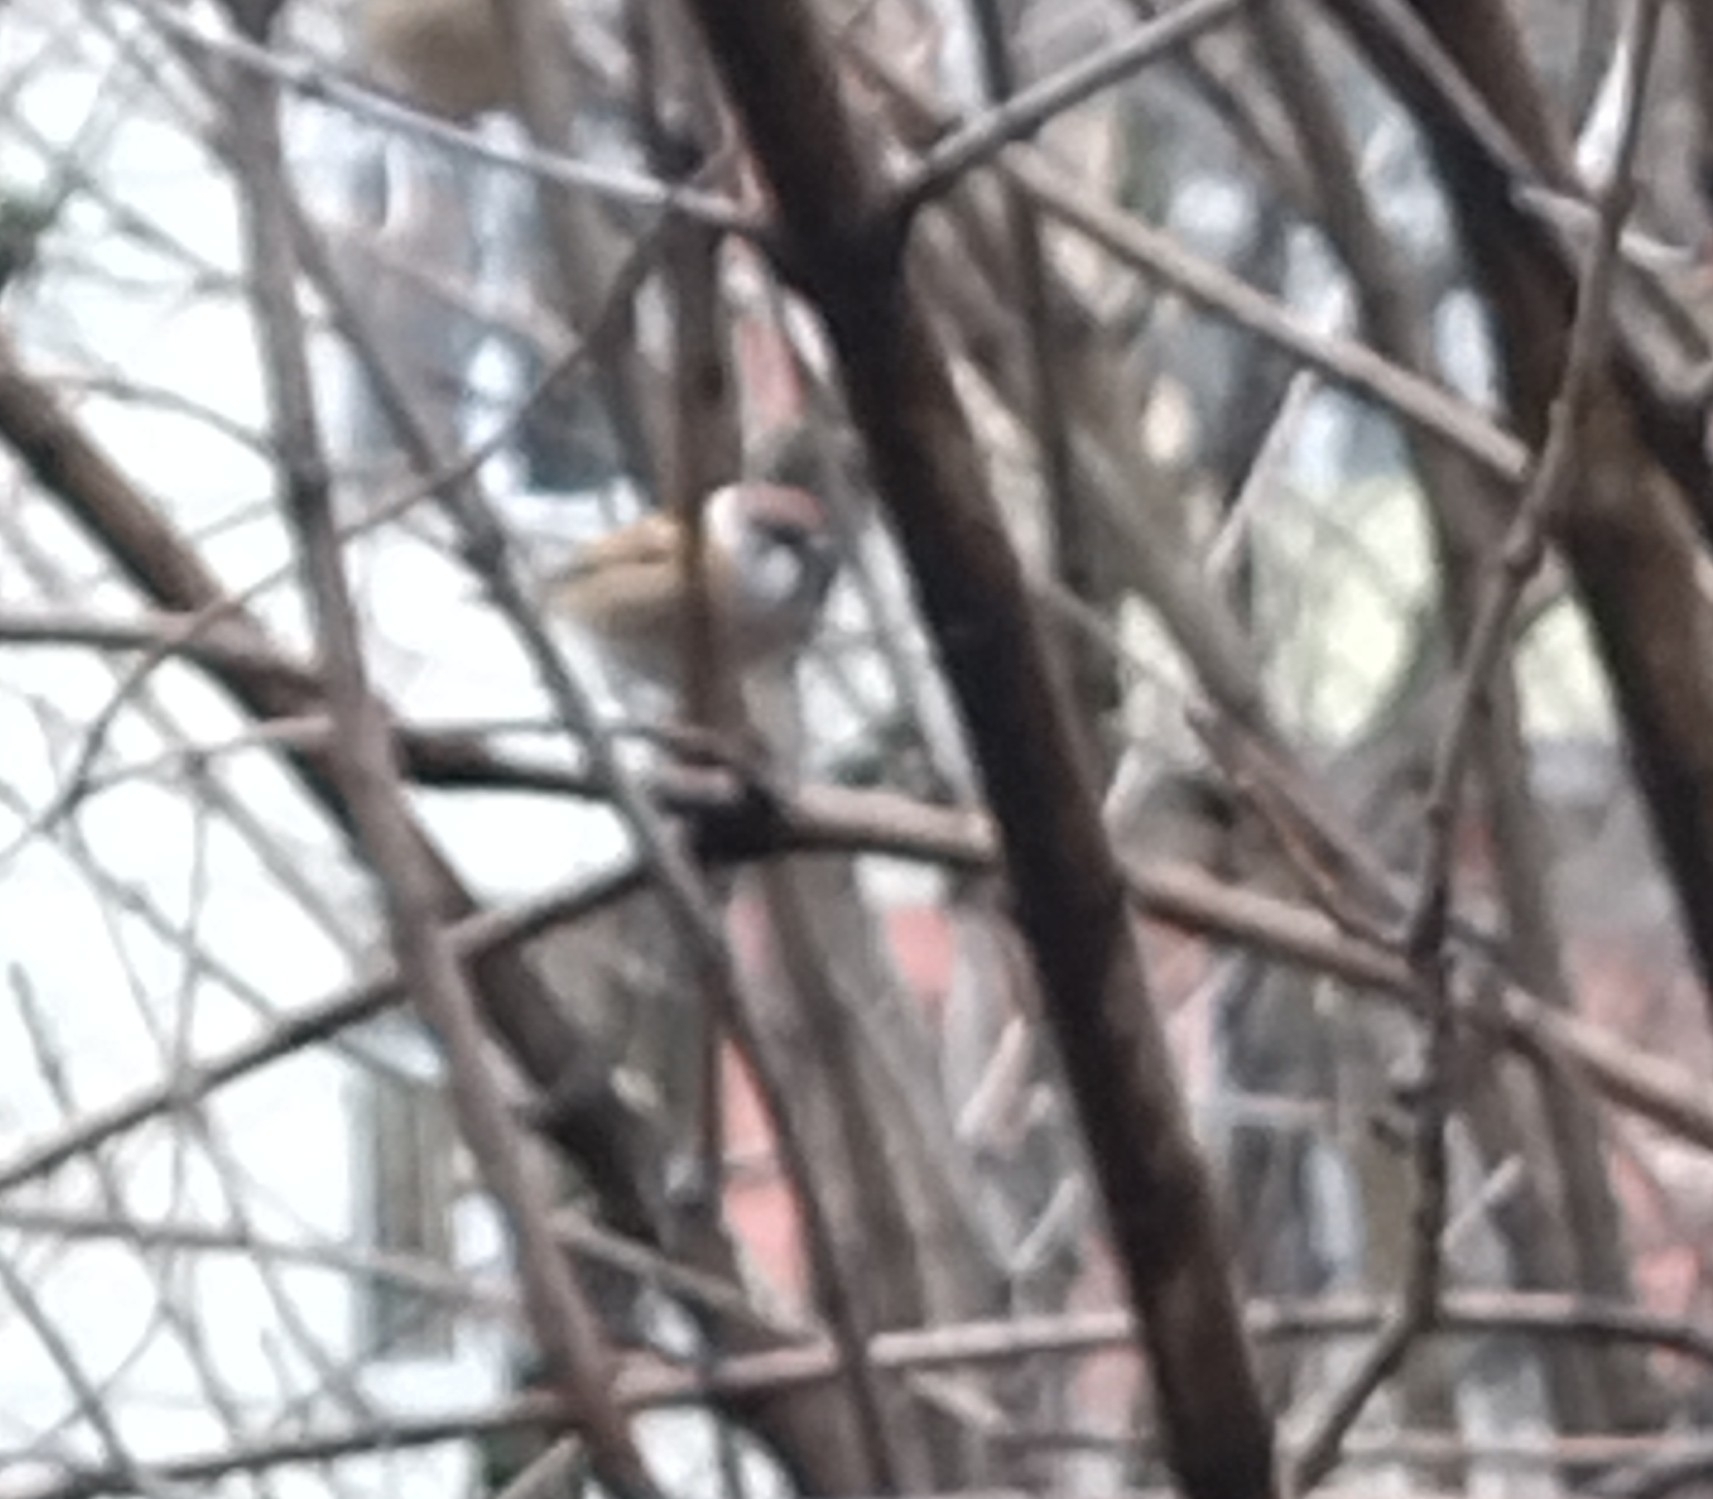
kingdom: Animalia
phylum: Chordata
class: Aves
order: Passeriformes
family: Passeridae
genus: Passer
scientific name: Passer montanus
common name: Eurasian tree sparrow
